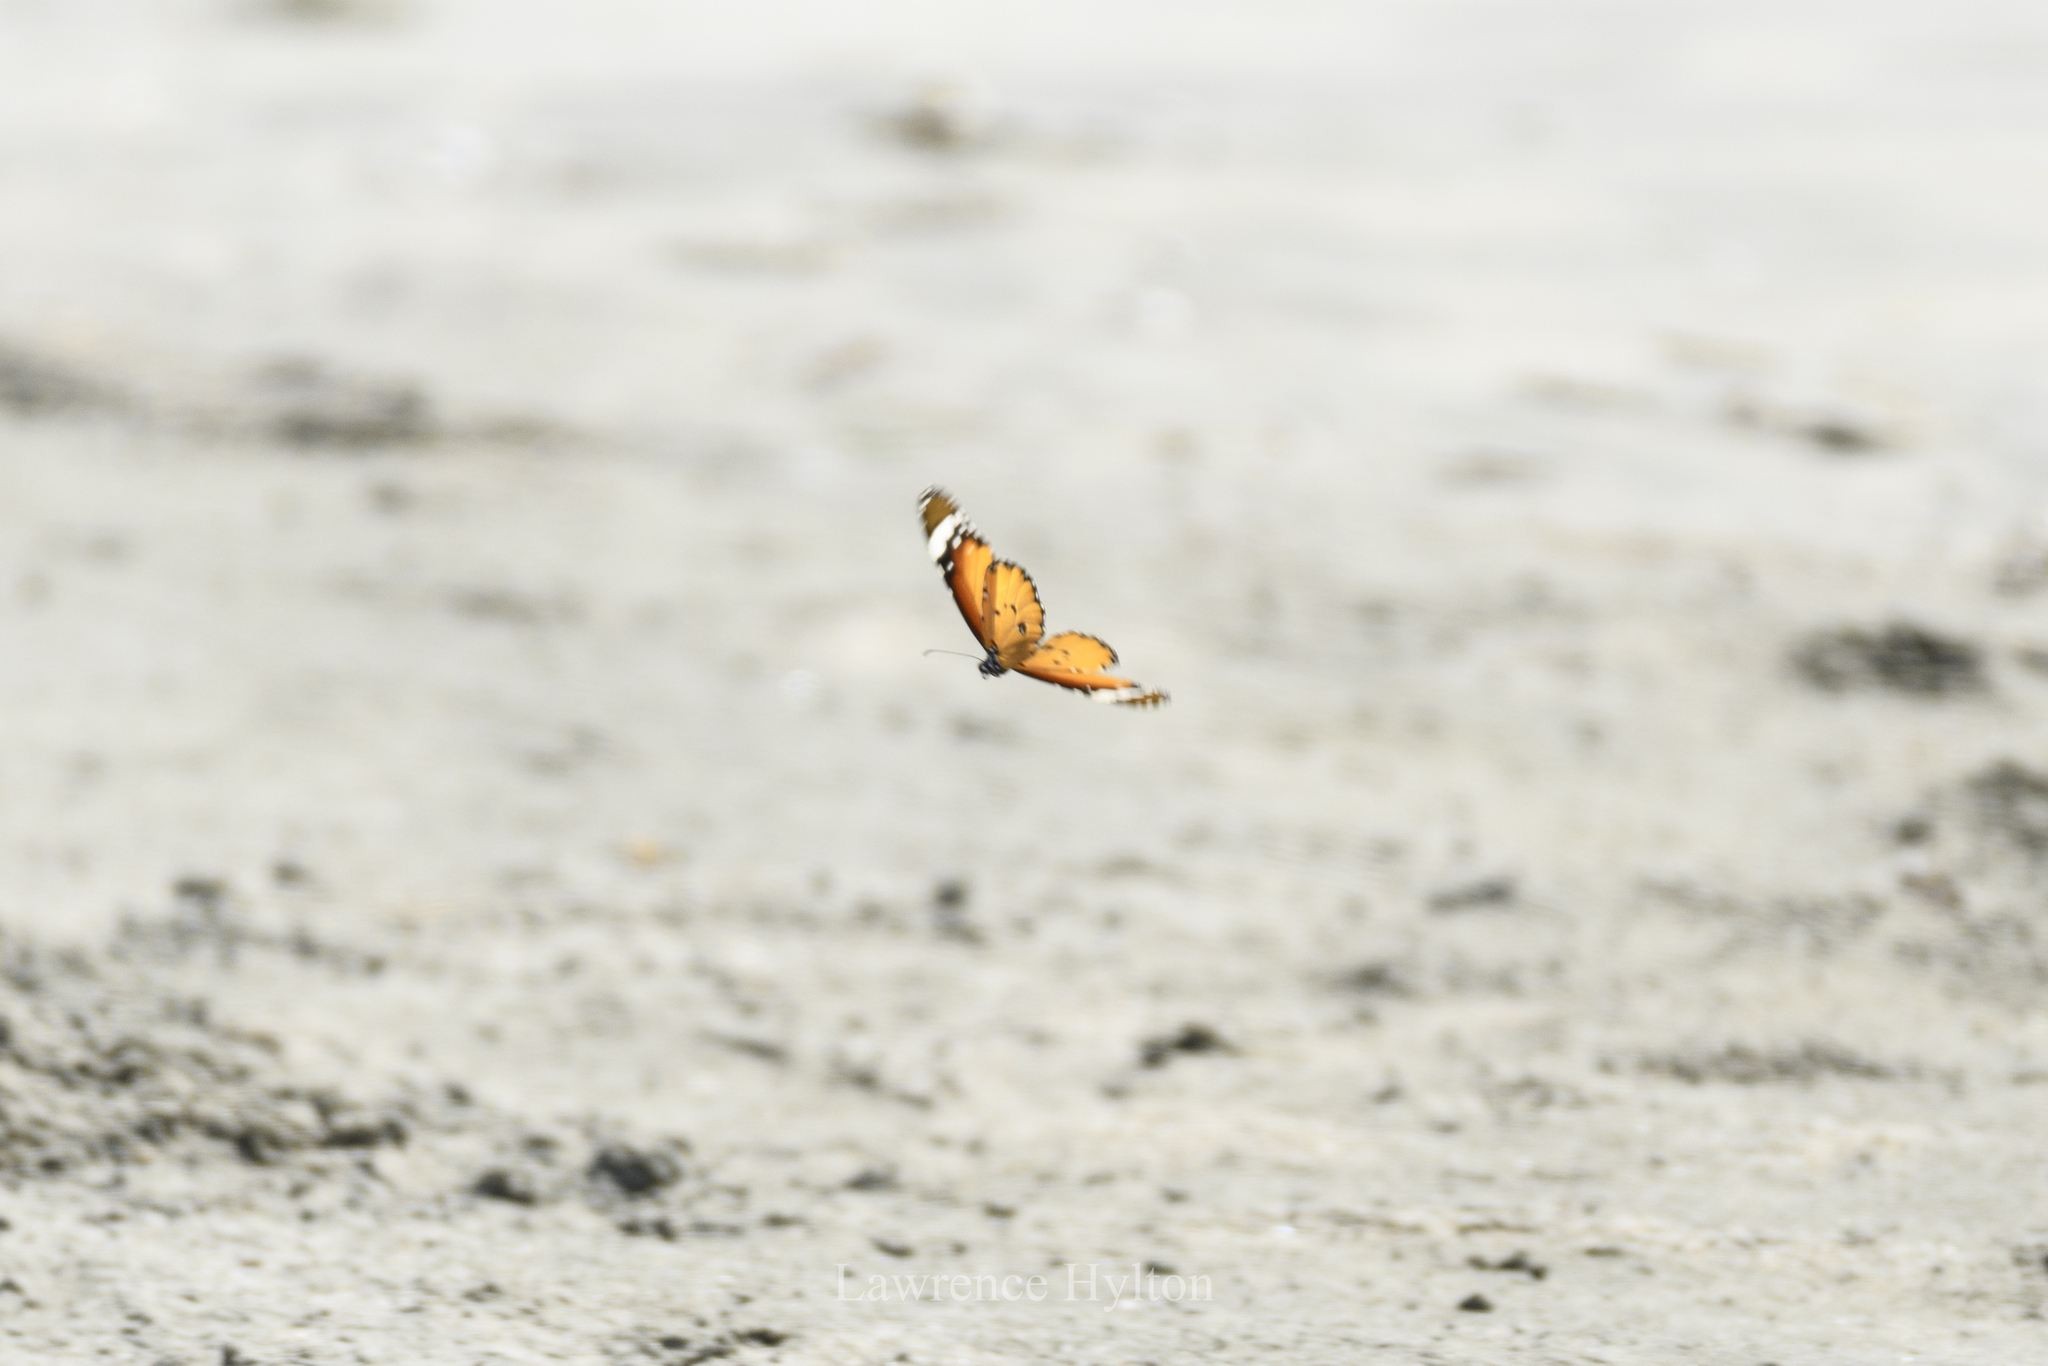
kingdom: Animalia
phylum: Arthropoda
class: Insecta
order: Lepidoptera
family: Nymphalidae
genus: Danaus
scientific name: Danaus chrysippus
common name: Plain tiger
